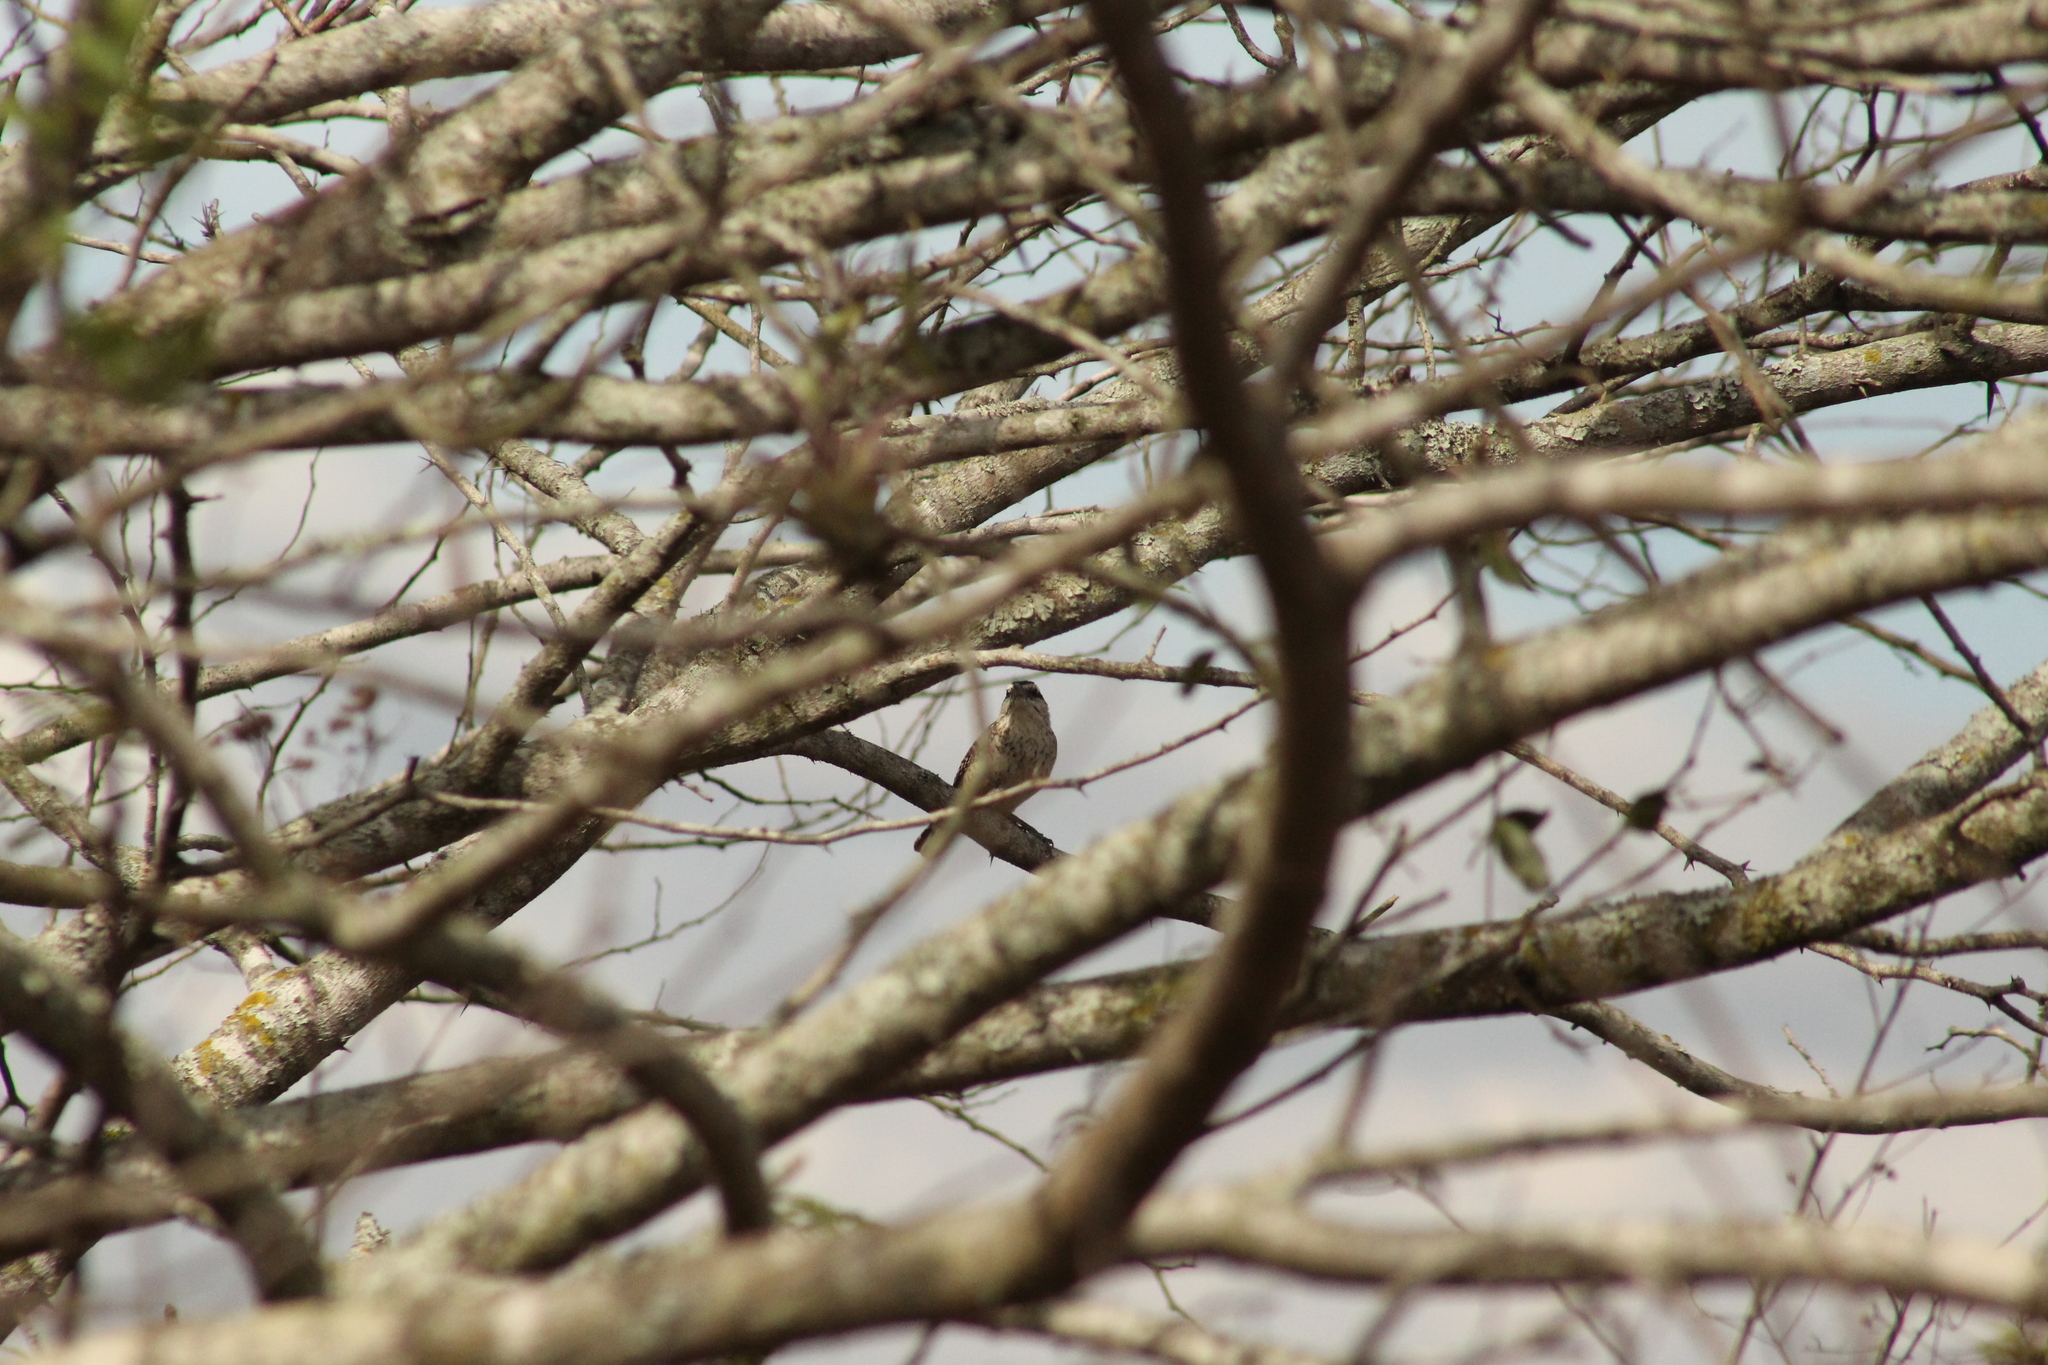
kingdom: Animalia
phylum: Chordata
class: Aves
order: Passeriformes
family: Troglodytidae
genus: Campylorhynchus
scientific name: Campylorhynchus rufinucha
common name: Rufous-naped wren
